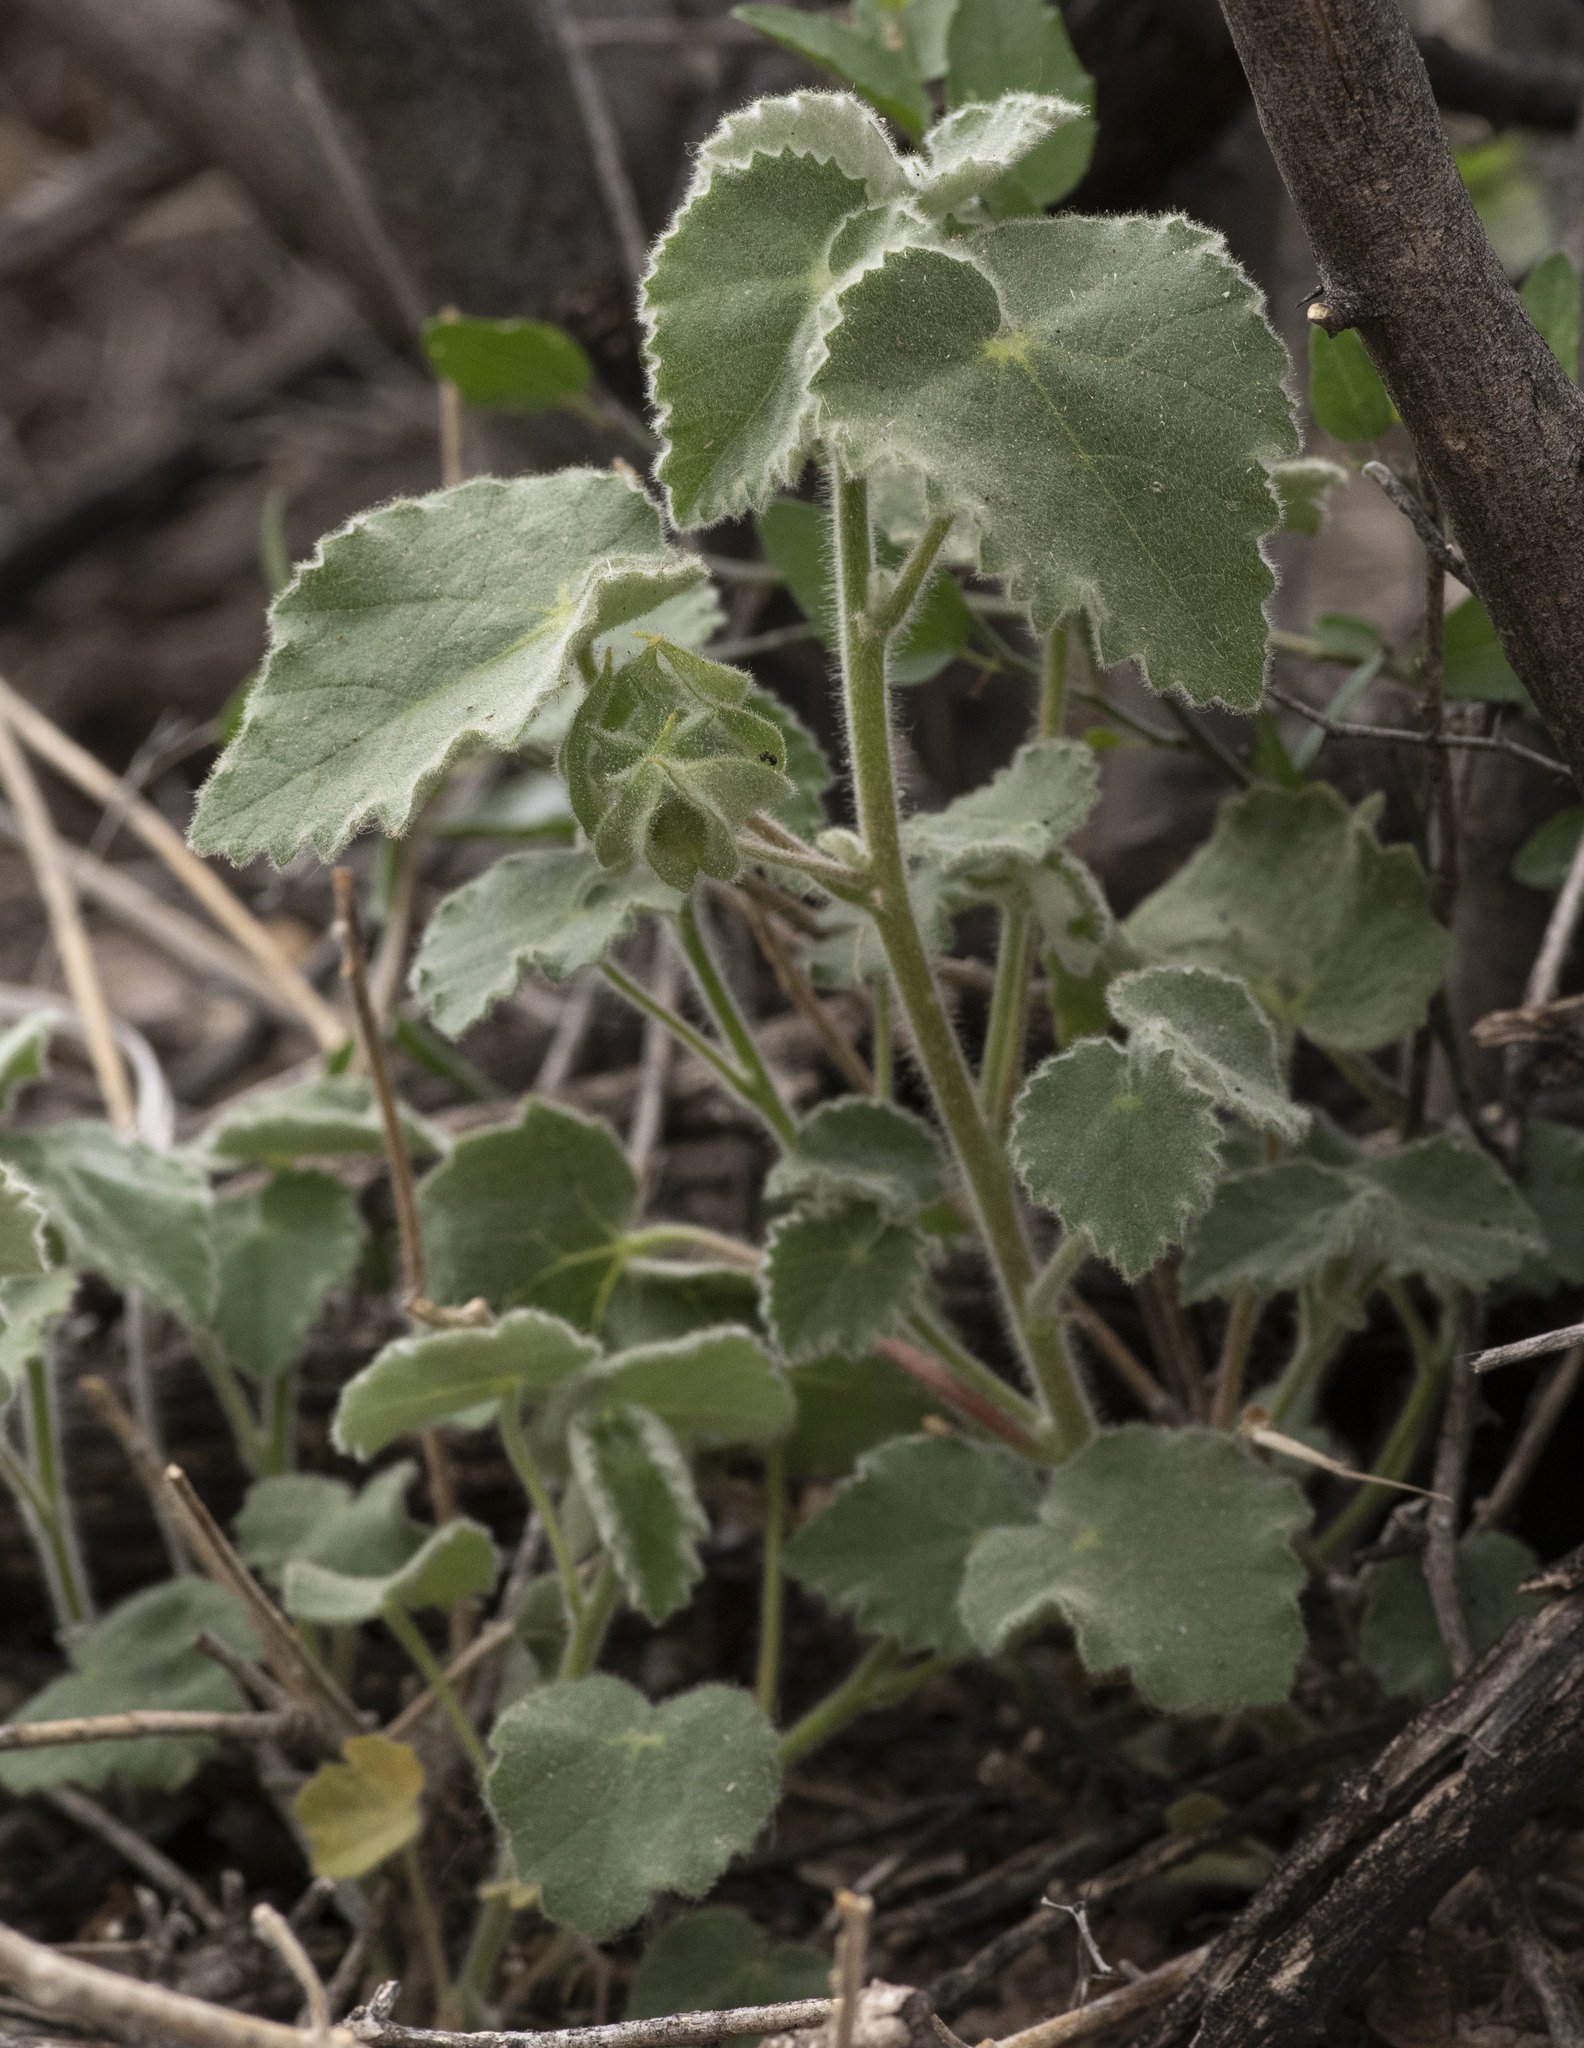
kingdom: Plantae
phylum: Tracheophyta
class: Magnoliopsida
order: Malvales
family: Malvaceae
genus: Abutilon
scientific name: Abutilon wrightii
